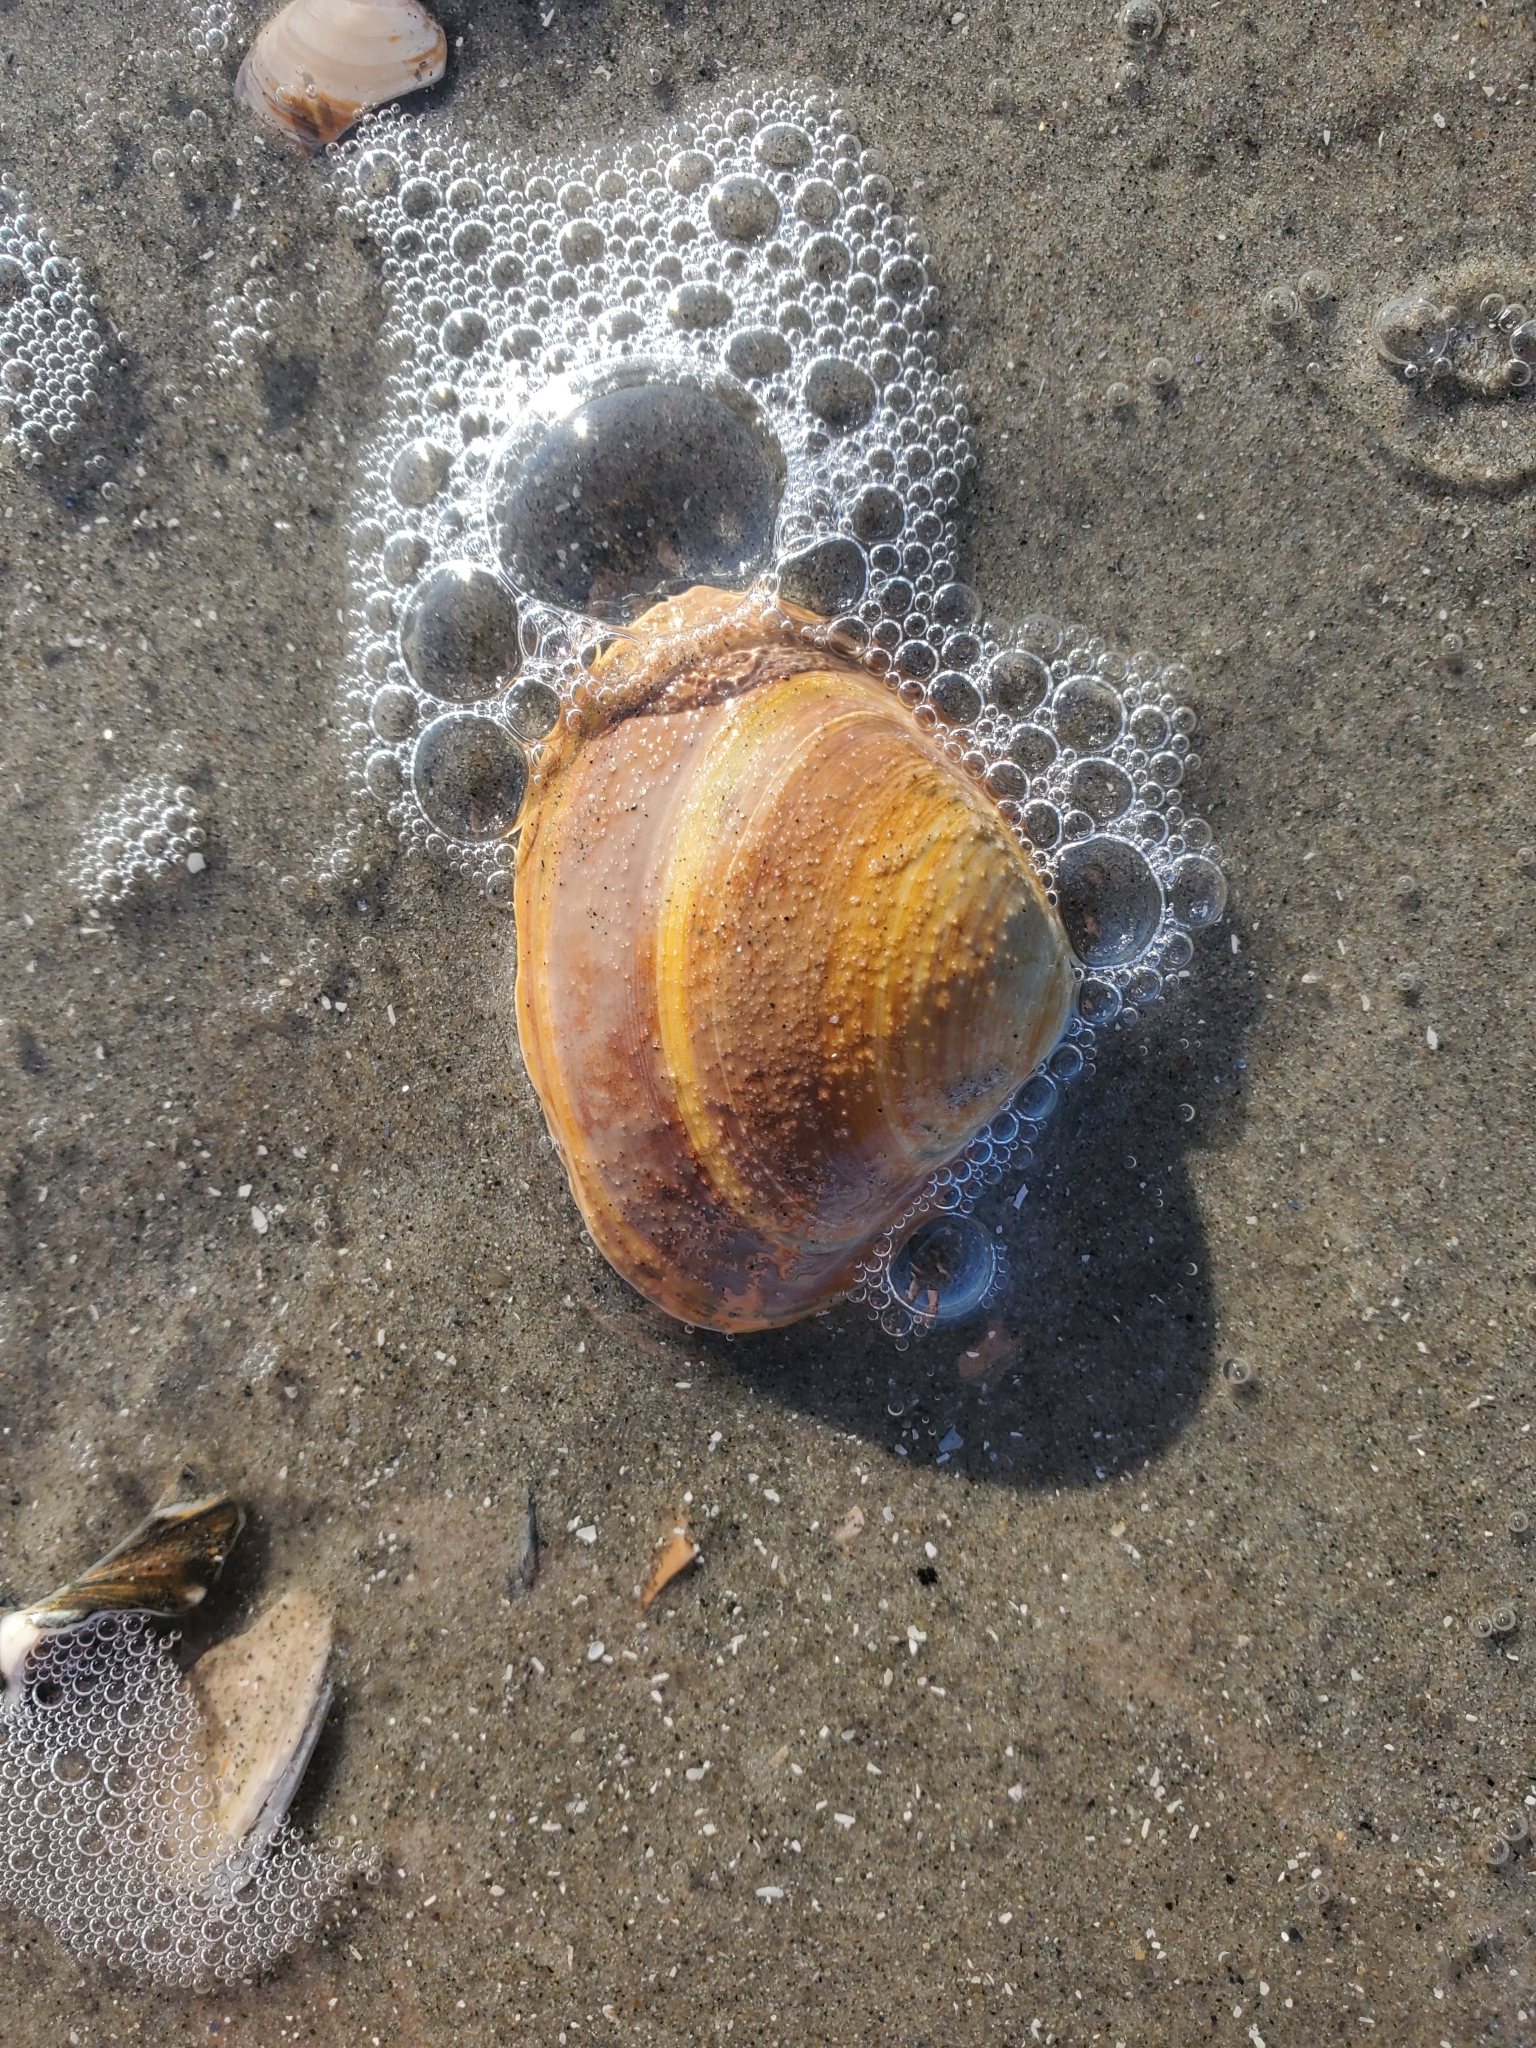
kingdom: Animalia
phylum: Mollusca
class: Bivalvia
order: Venerida
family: Mactridae
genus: Spisula
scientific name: Spisula solidissima
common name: Atlantic surf clam
